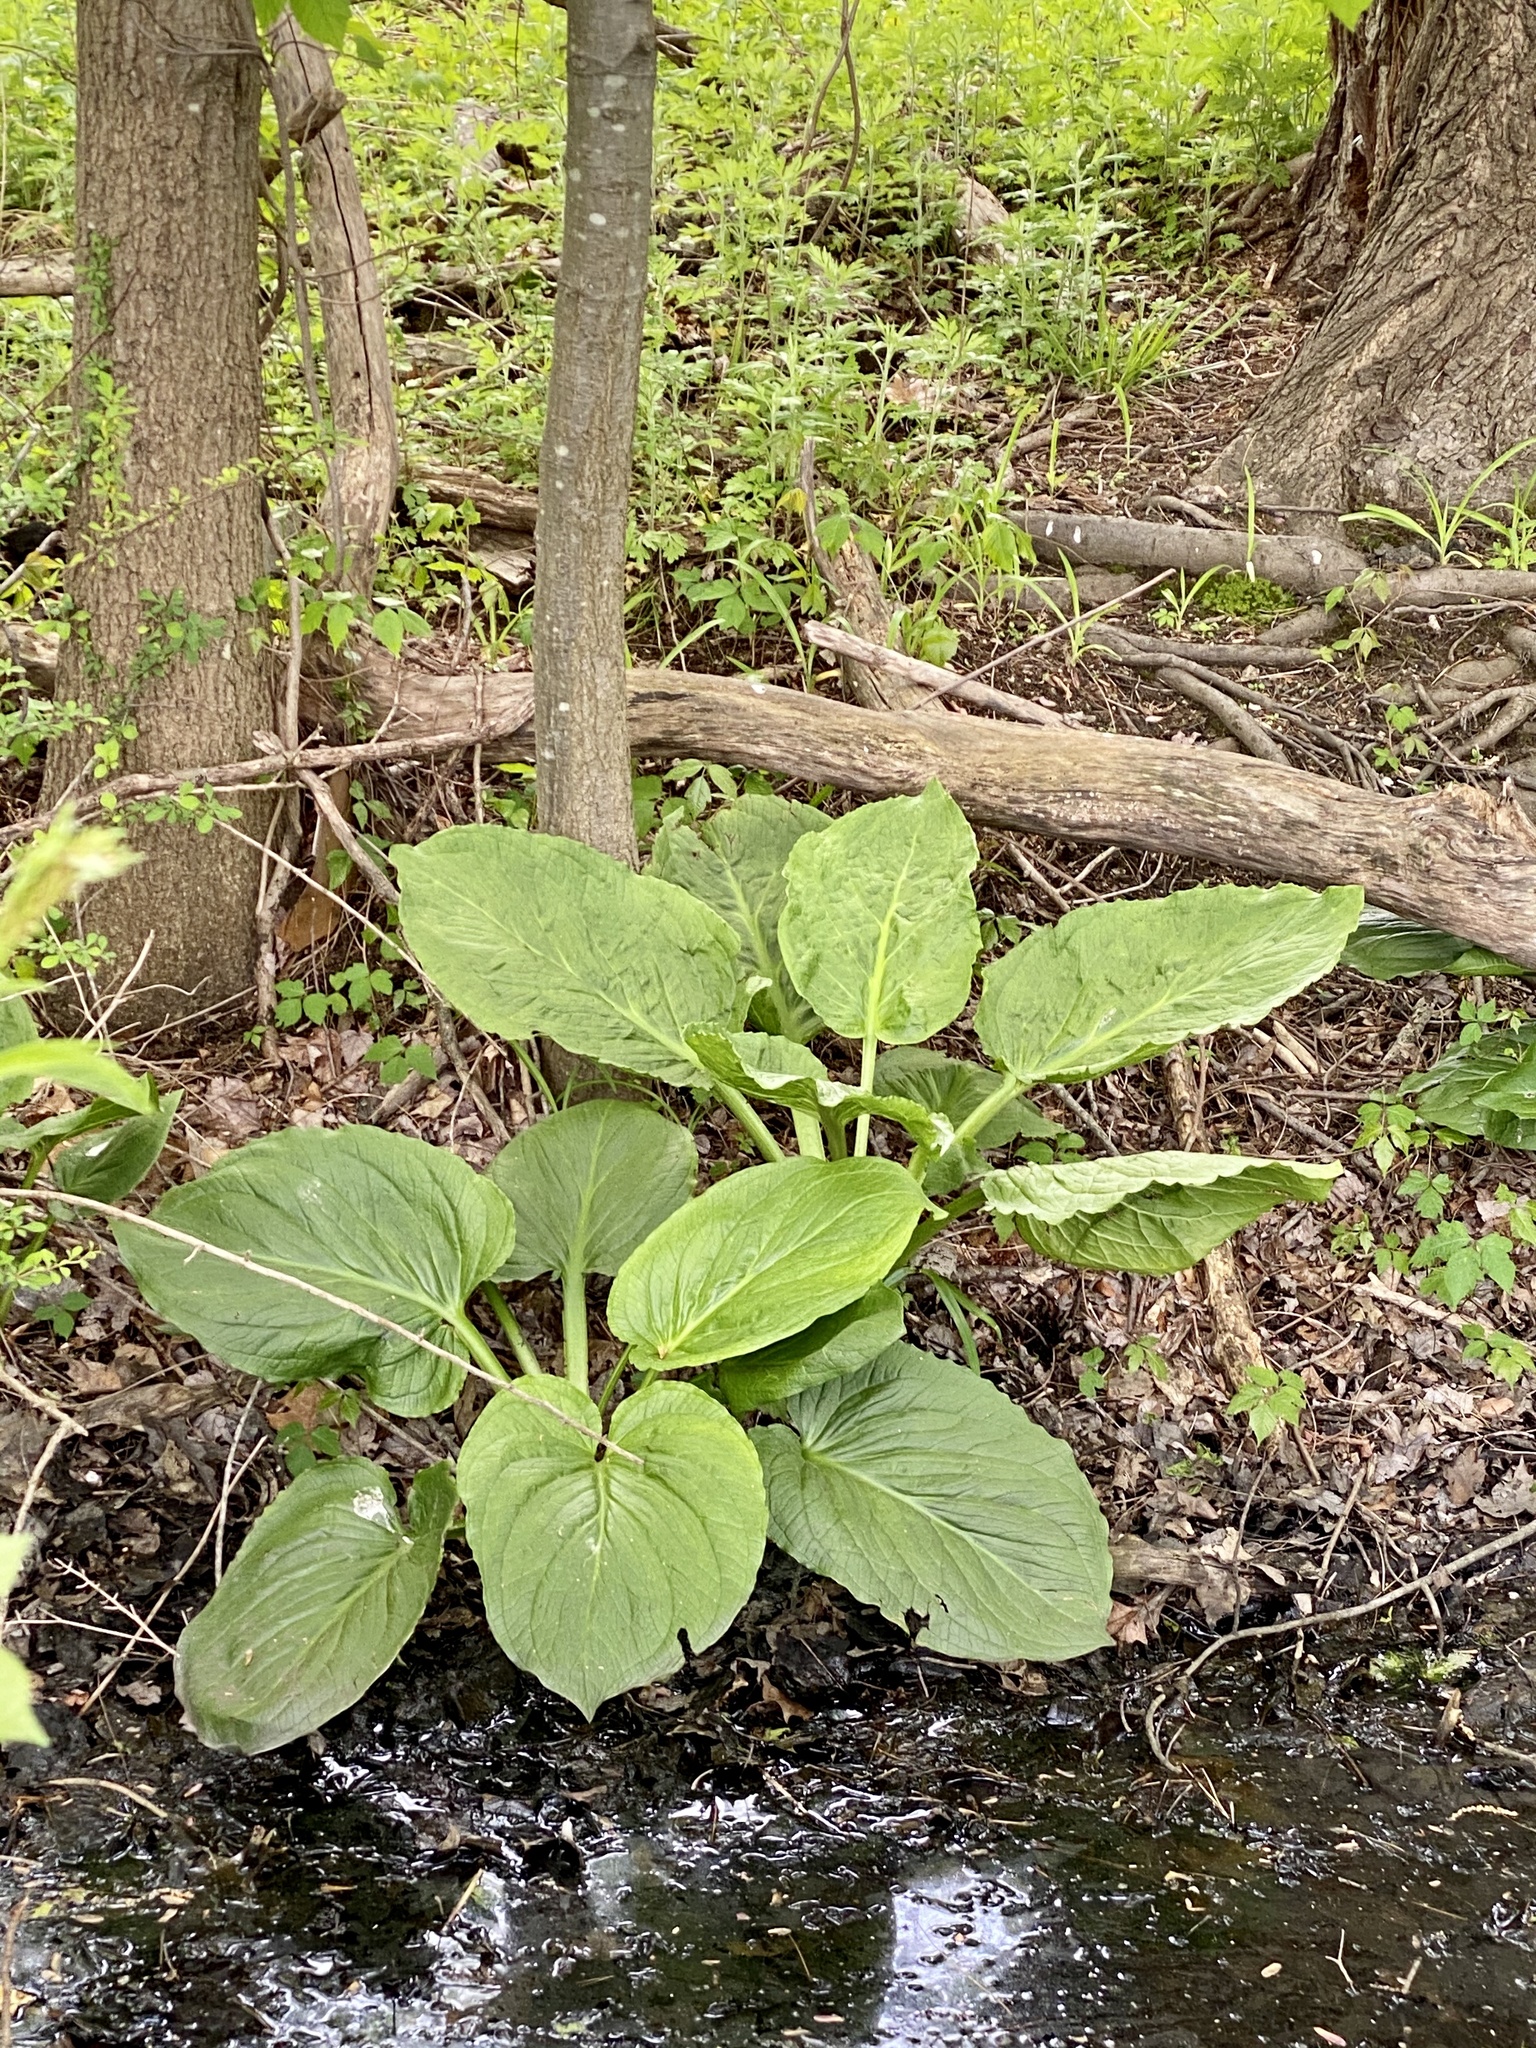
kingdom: Plantae
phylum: Tracheophyta
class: Liliopsida
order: Alismatales
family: Araceae
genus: Symplocarpus
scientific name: Symplocarpus foetidus
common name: Eastern skunk cabbage
